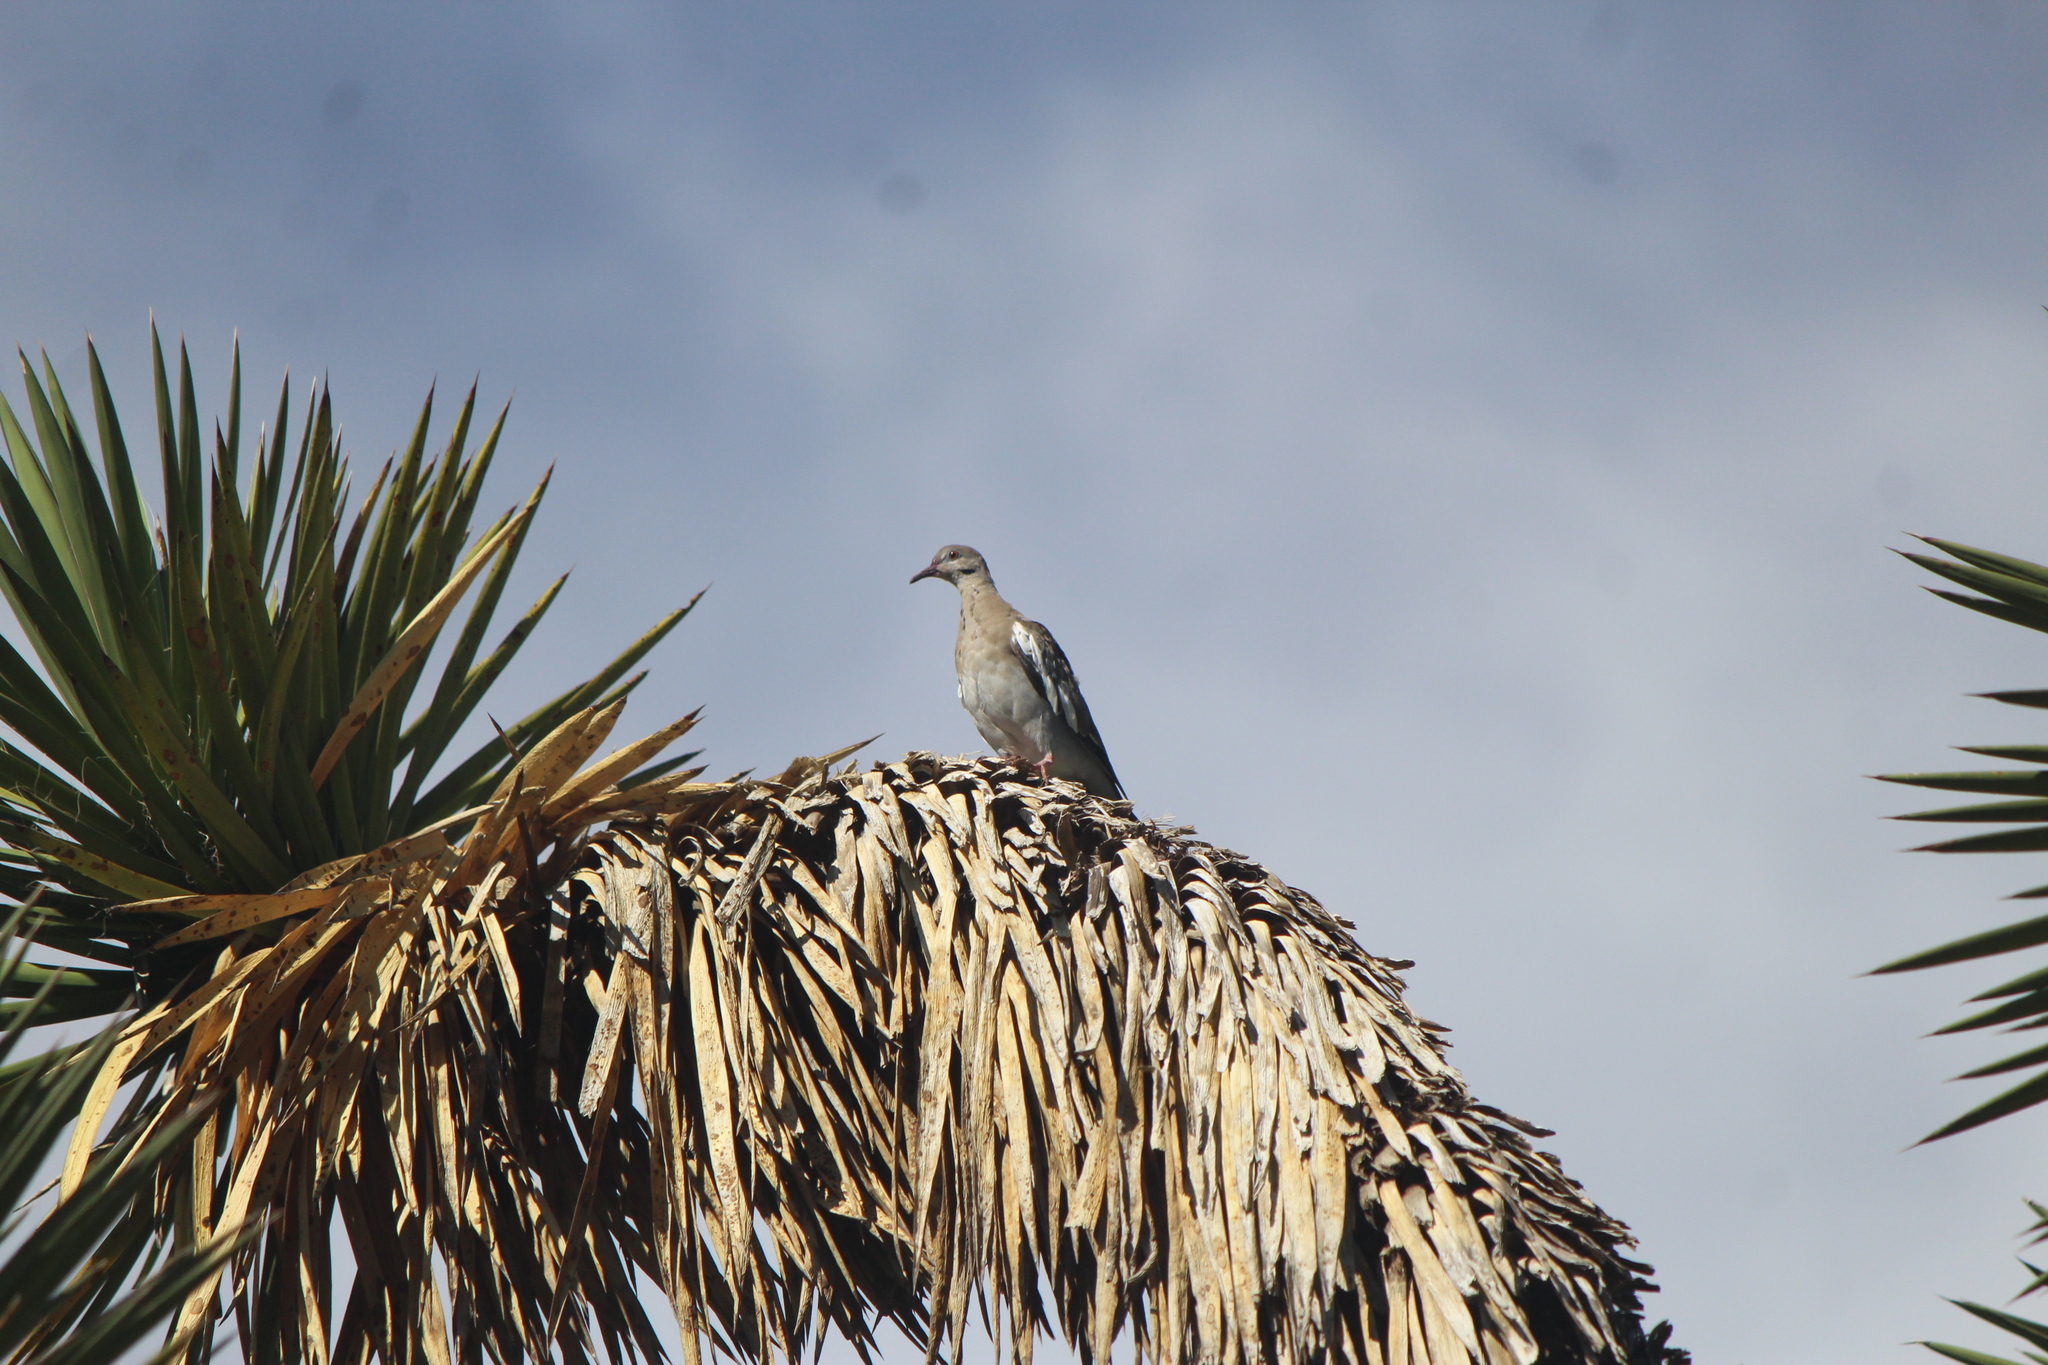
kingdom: Animalia
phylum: Chordata
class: Aves
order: Columbiformes
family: Columbidae
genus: Zenaida
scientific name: Zenaida asiatica
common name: White-winged dove
